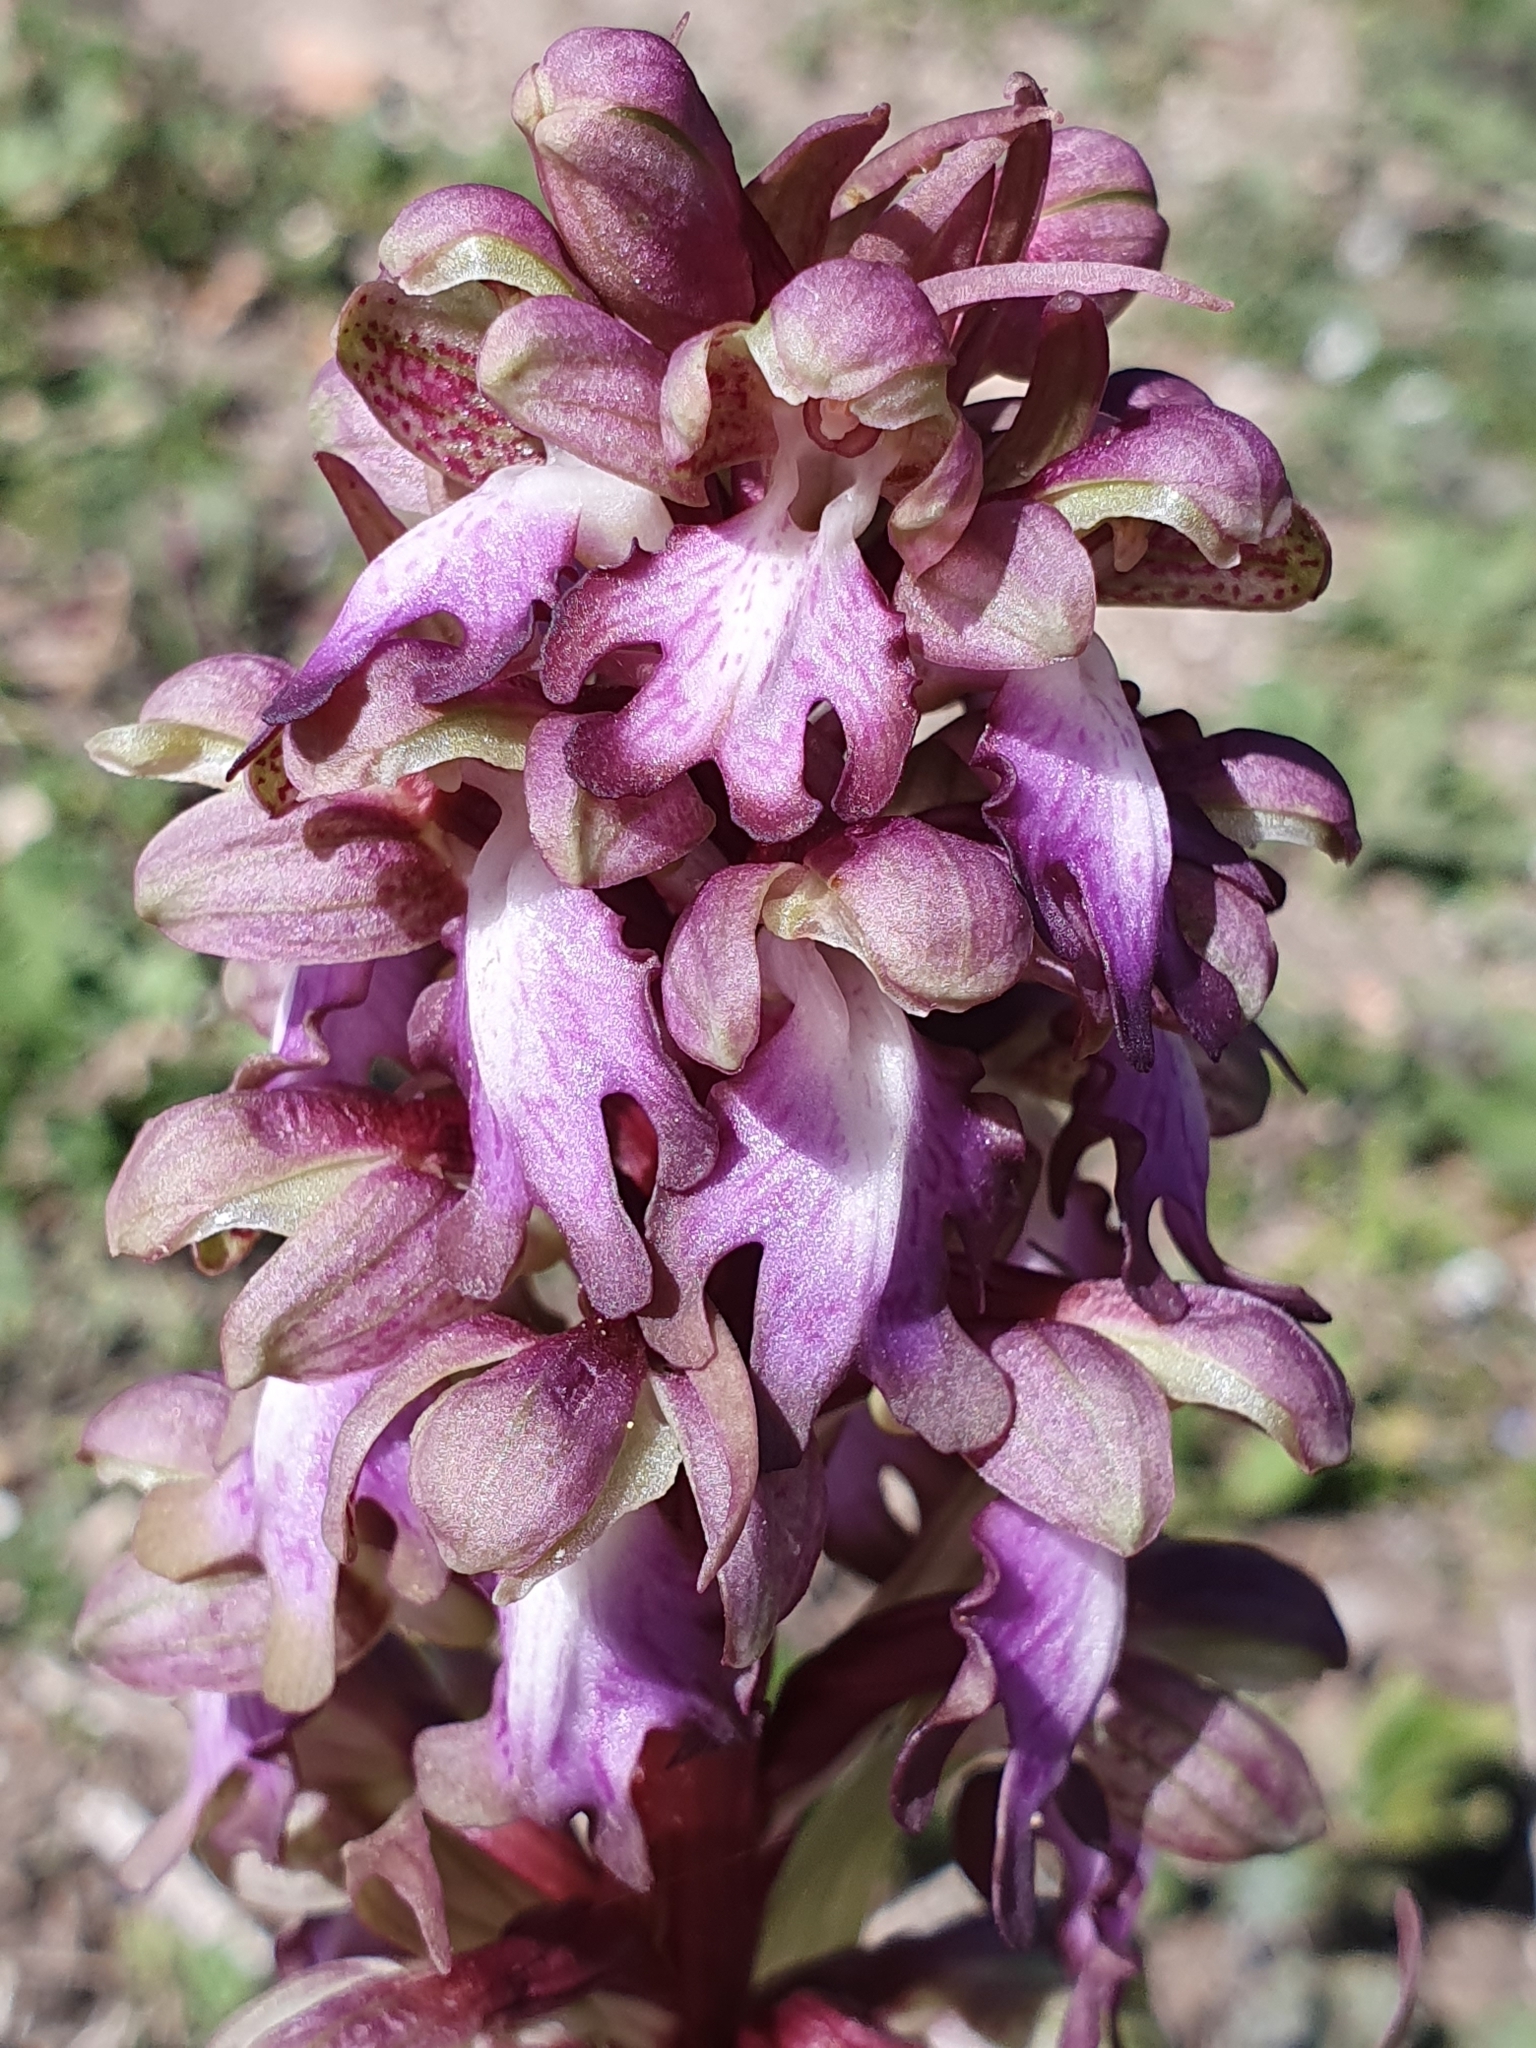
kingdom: Plantae
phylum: Tracheophyta
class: Liliopsida
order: Asparagales
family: Orchidaceae
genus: Himantoglossum
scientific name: Himantoglossum robertianum
